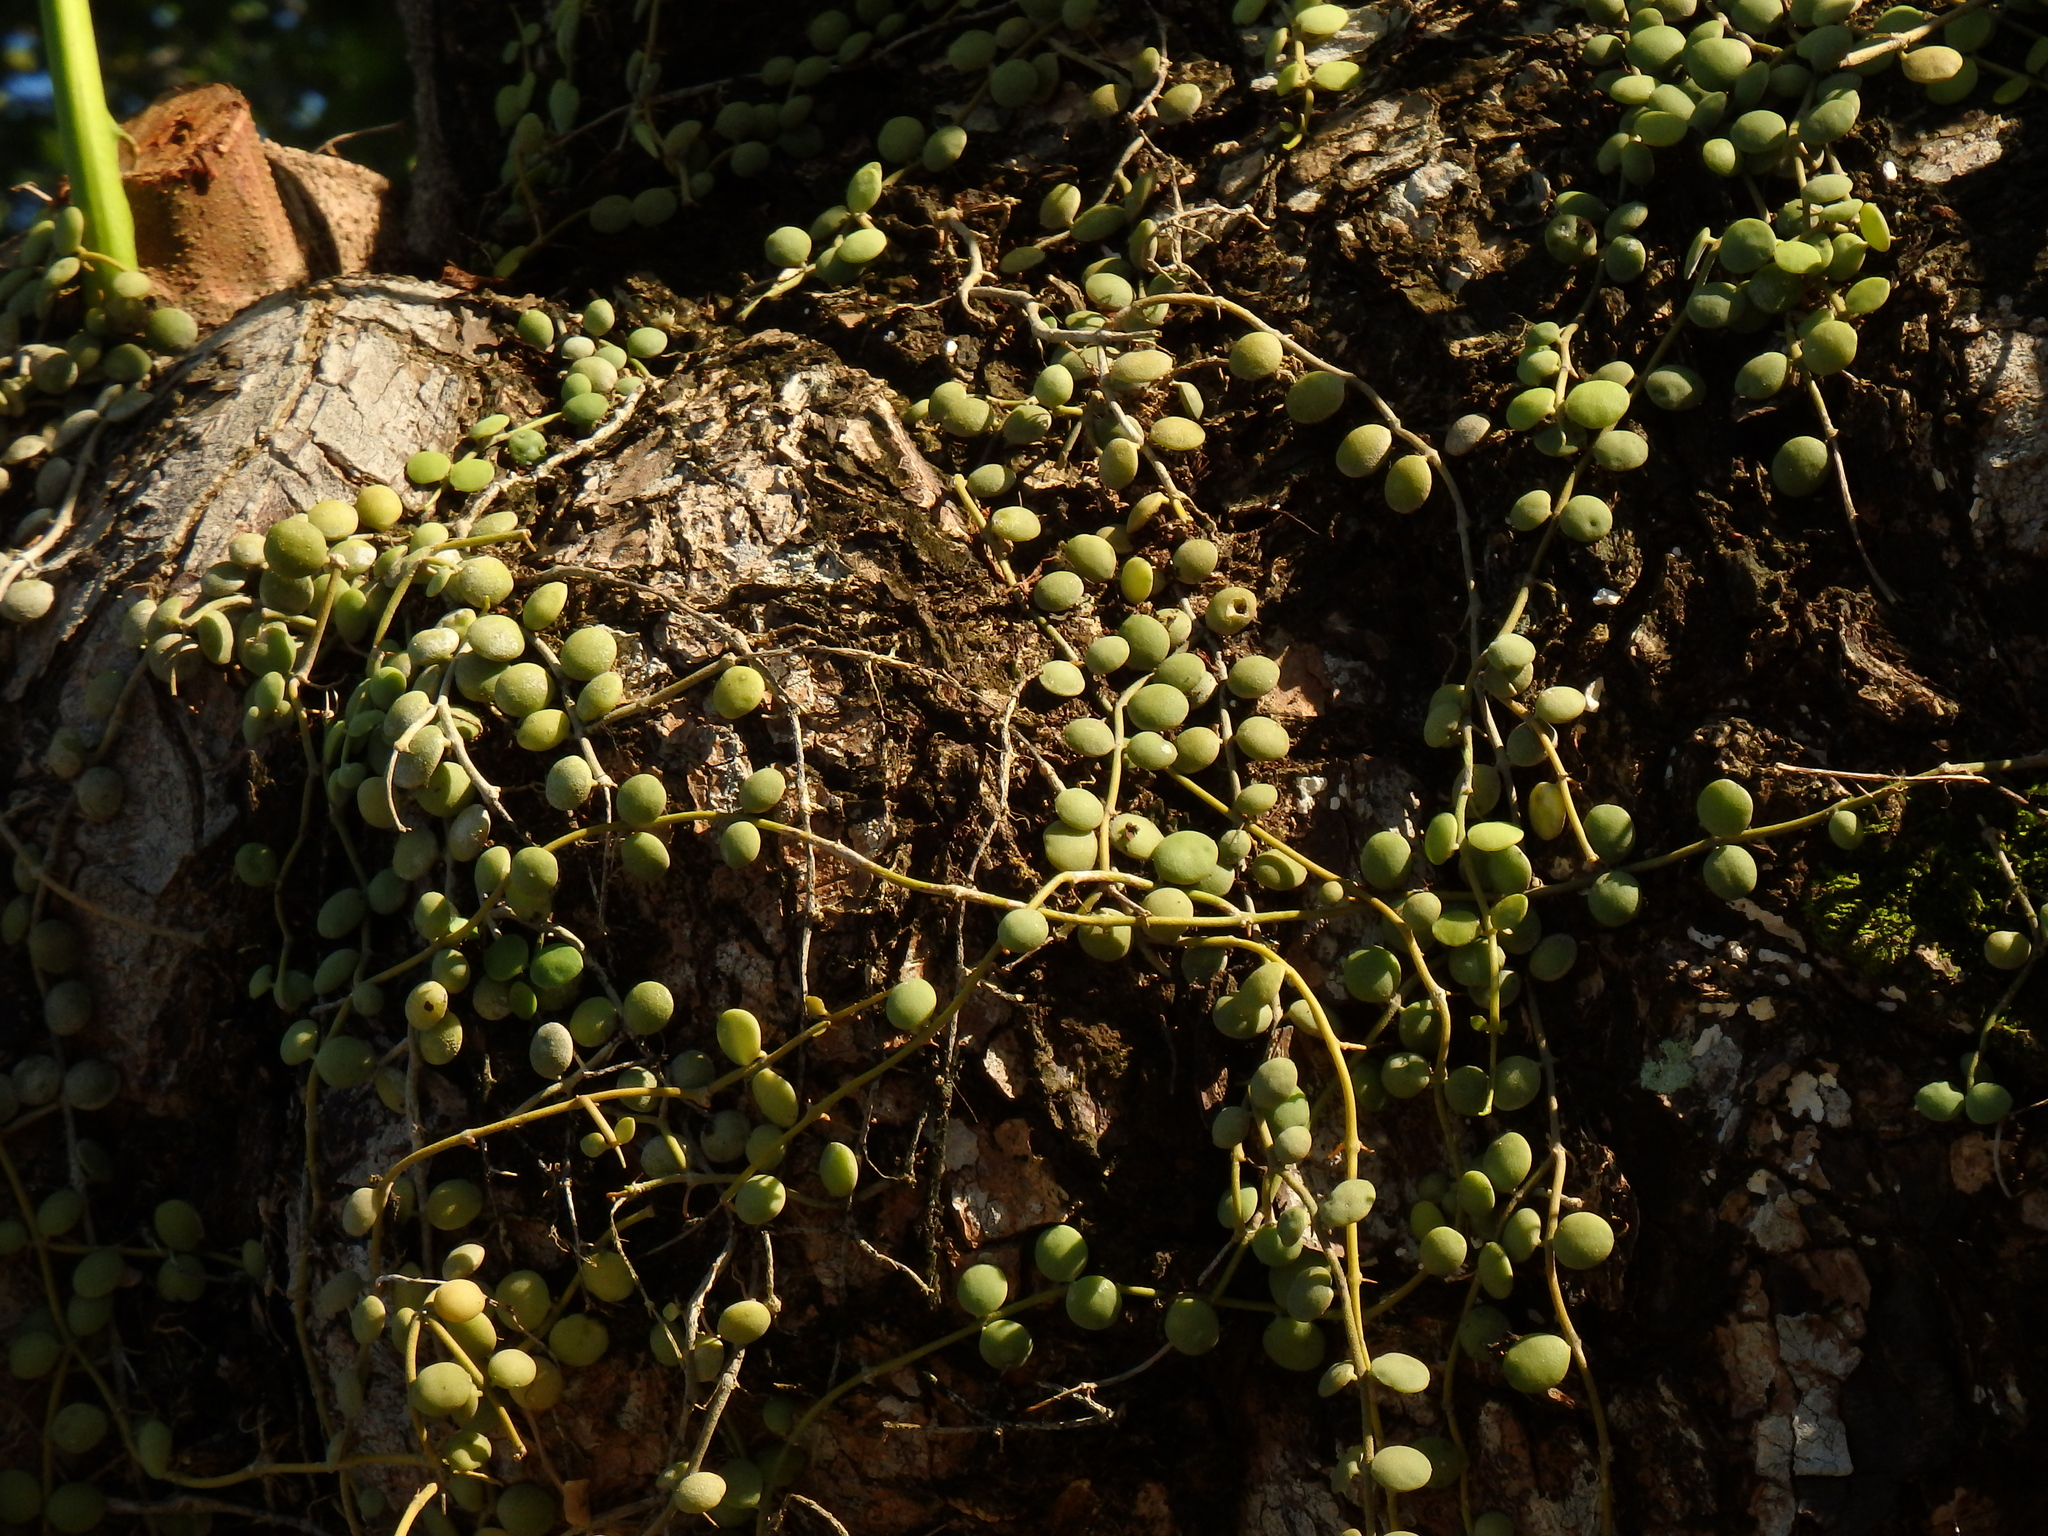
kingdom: Plantae
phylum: Tracheophyta
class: Magnoliopsida
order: Gentianales
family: Apocynaceae
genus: Dischidia
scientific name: Dischidia nummularia
